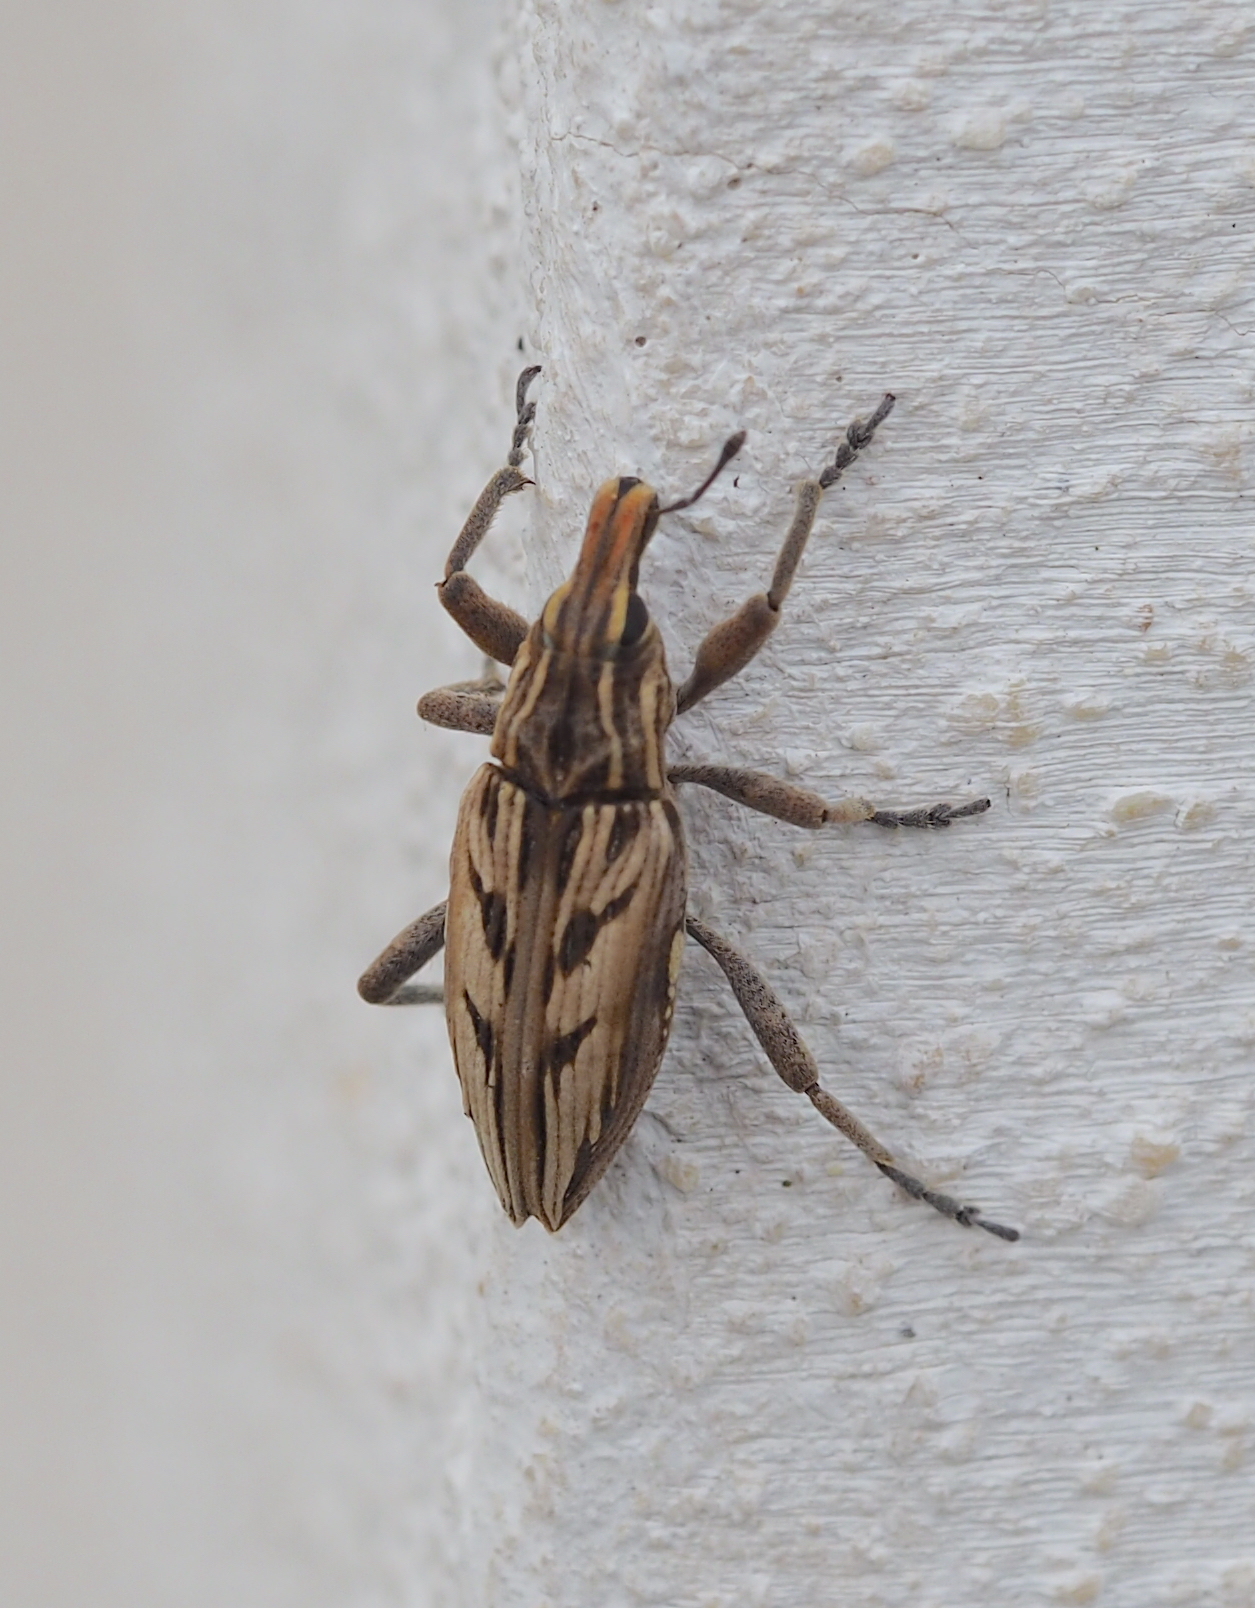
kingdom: Animalia
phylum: Arthropoda
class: Insecta
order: Coleoptera
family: Curculionidae
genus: Coniocleonus
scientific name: Coniocleonus nigrosuturatus
